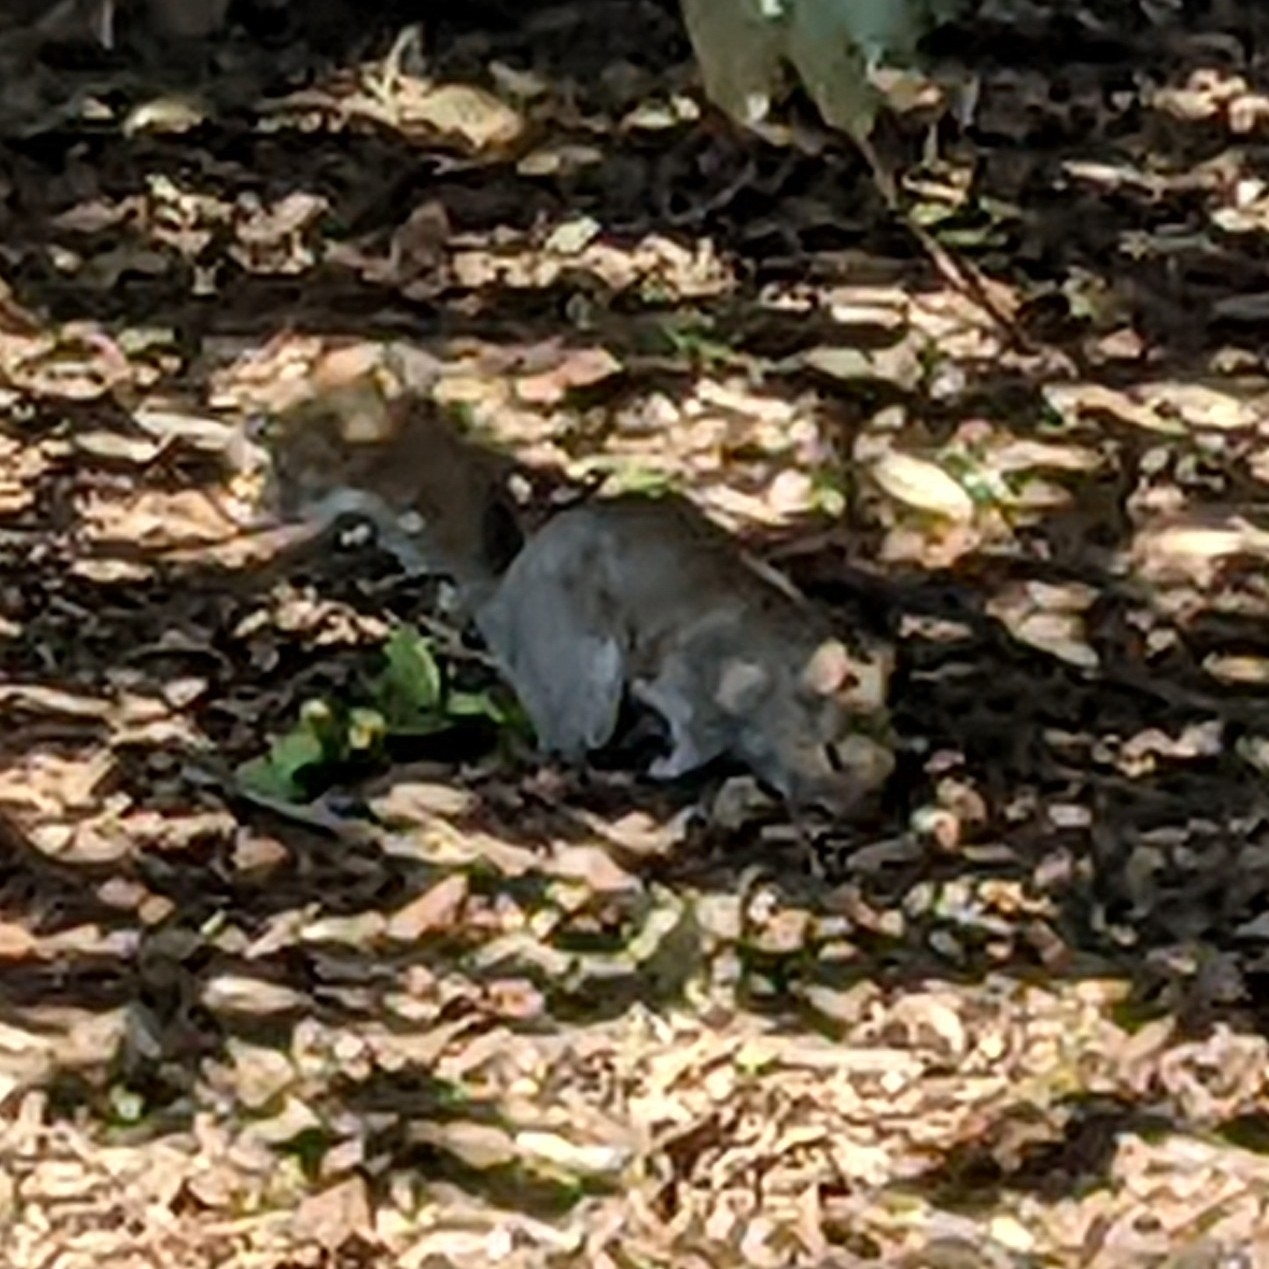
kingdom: Animalia
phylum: Chordata
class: Mammalia
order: Rodentia
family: Sciuridae
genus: Sciurus
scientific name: Sciurus carolinensis
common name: Eastern gray squirrel
